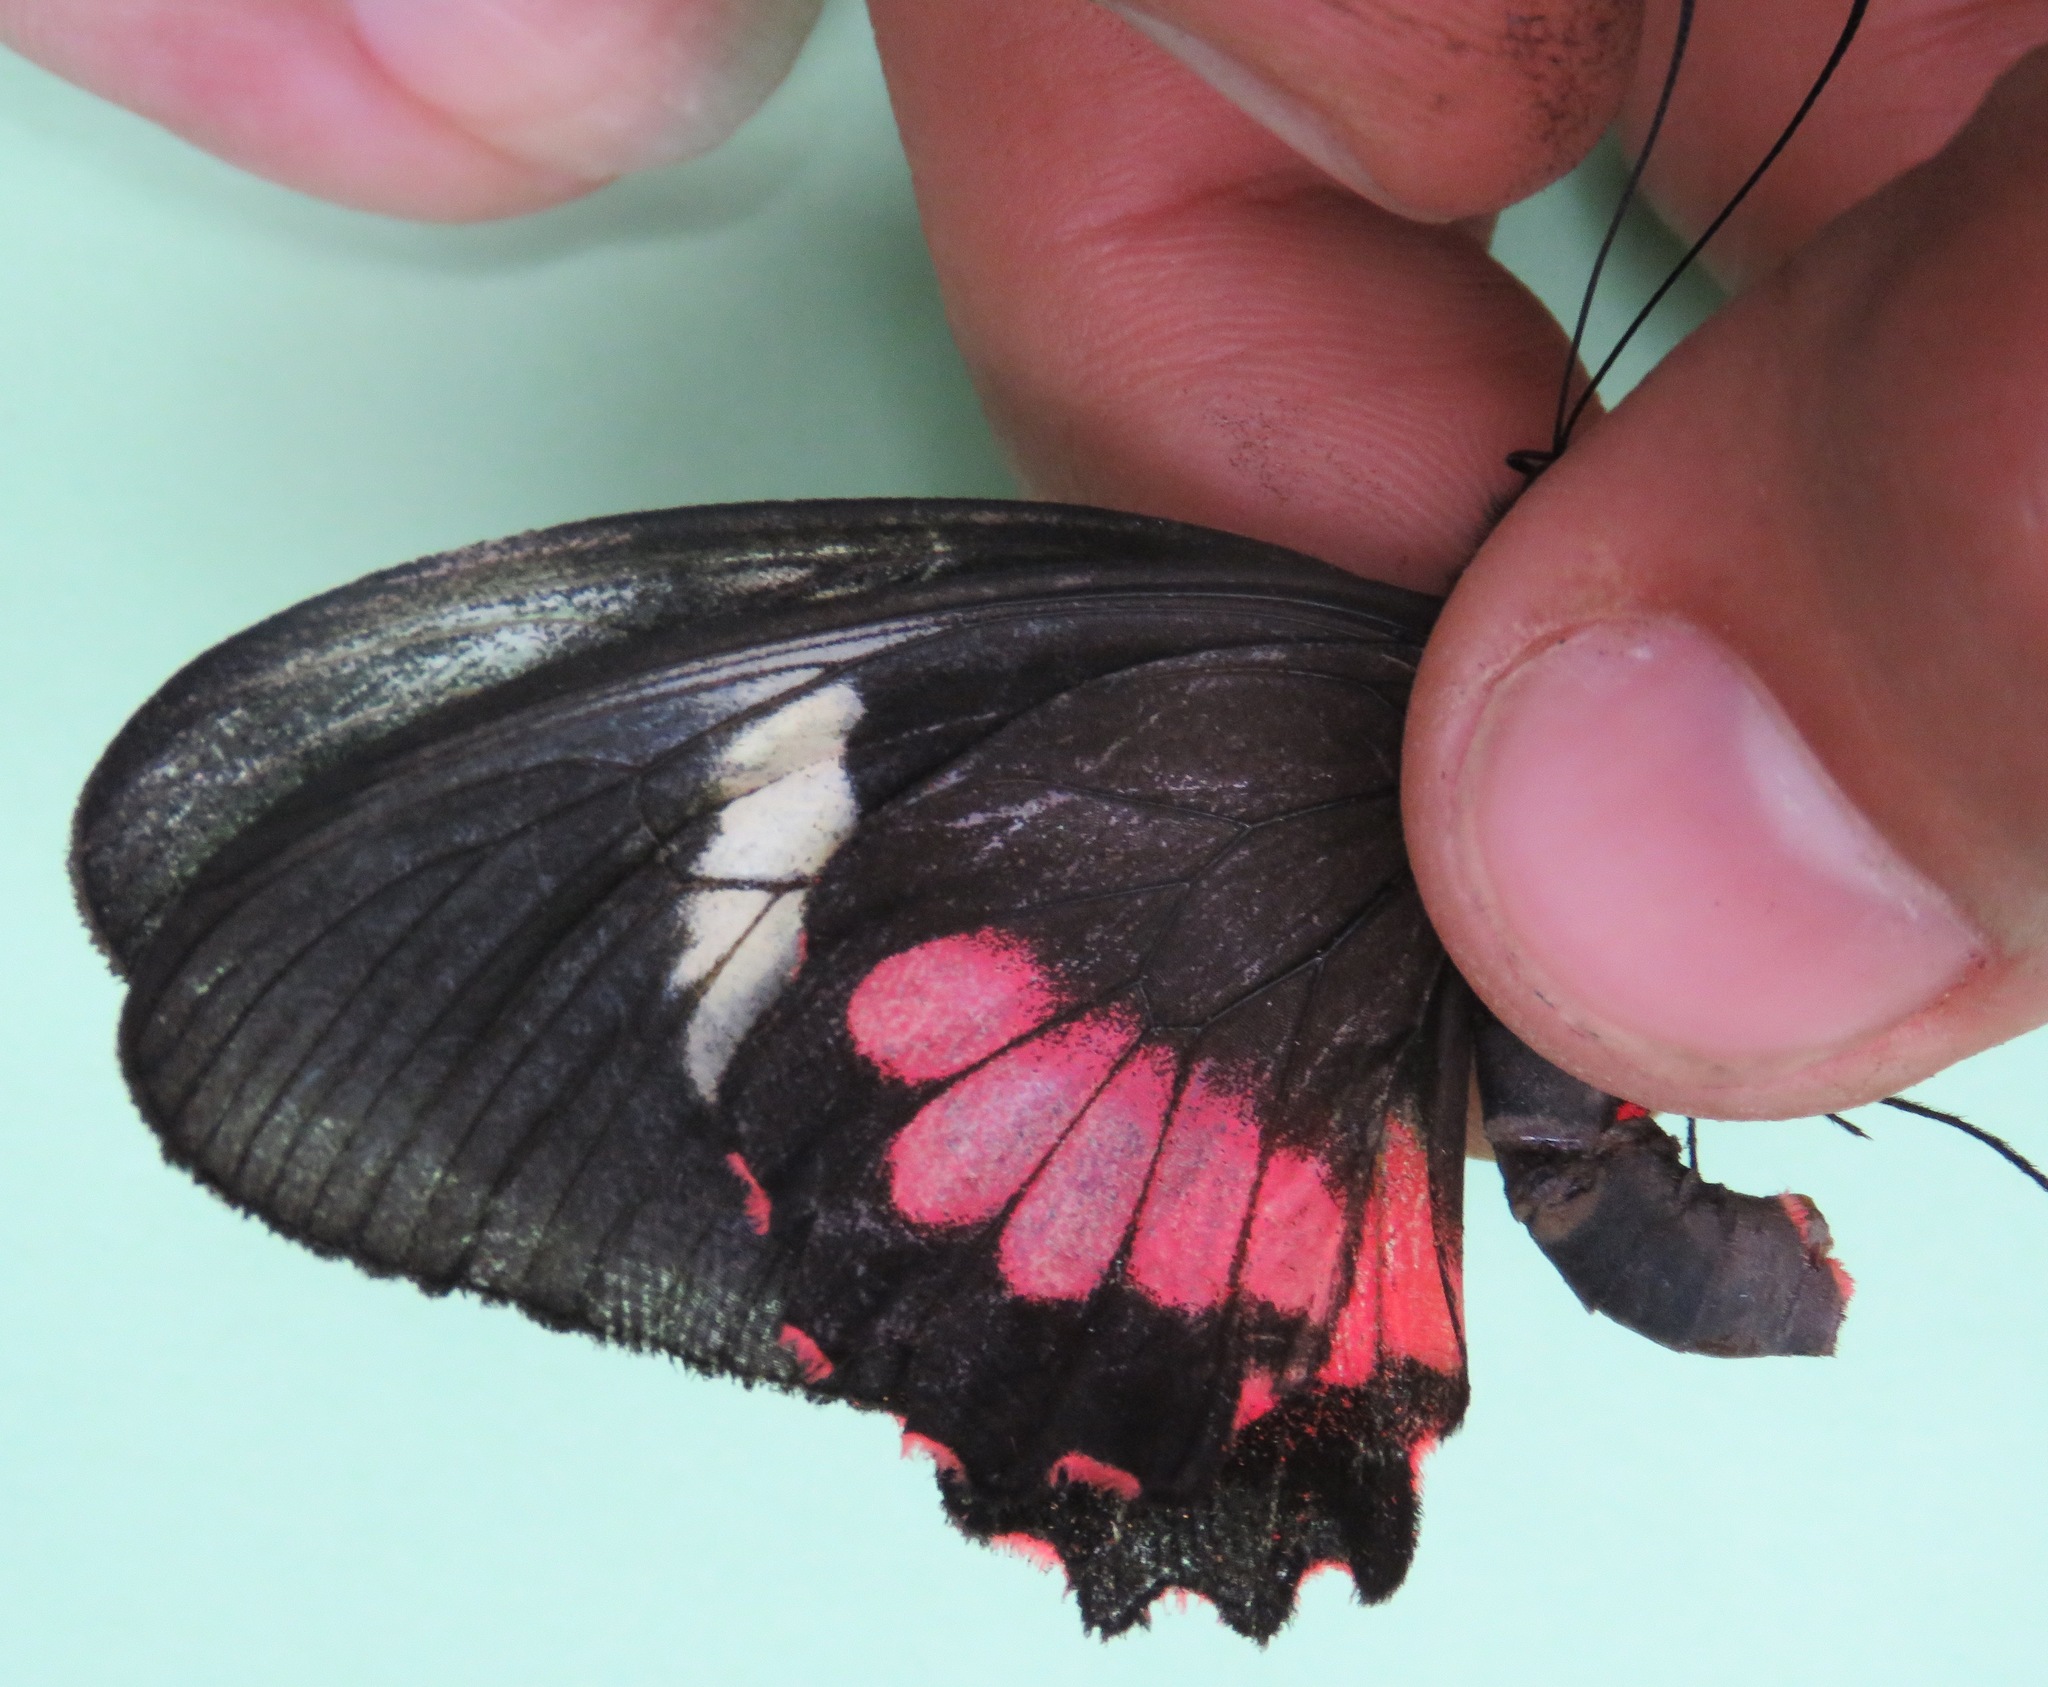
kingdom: Animalia
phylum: Arthropoda
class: Insecta
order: Lepidoptera
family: Papilionidae
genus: Parides
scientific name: Parides eurimedes
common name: True cattleheart
